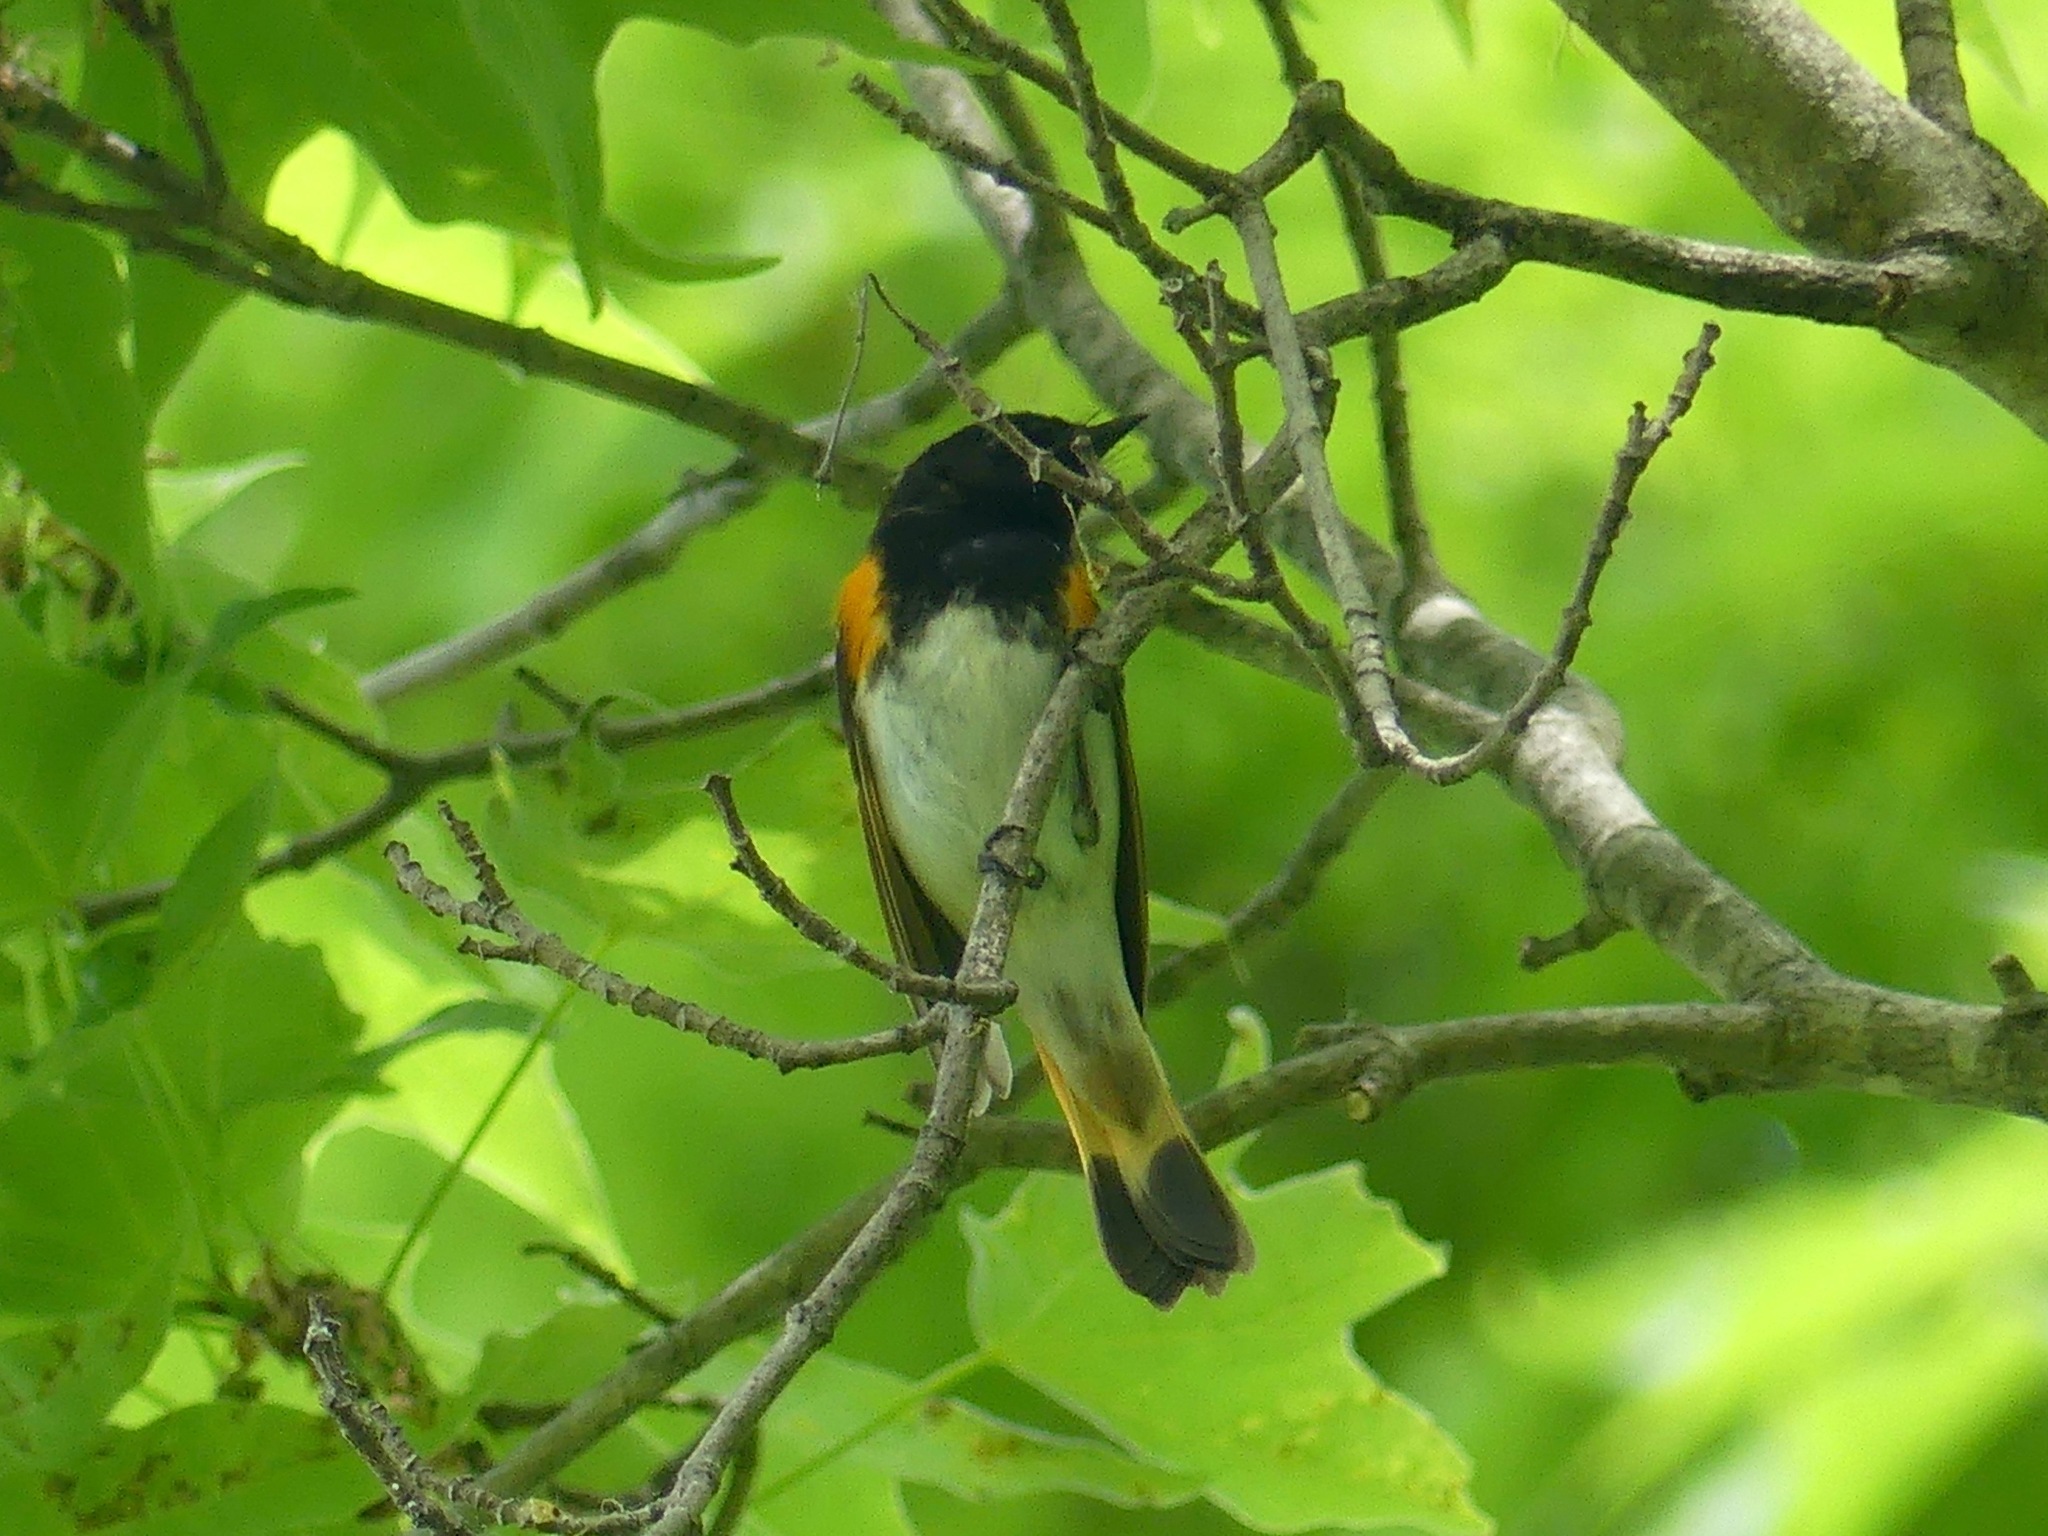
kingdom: Animalia
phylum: Chordata
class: Aves
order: Passeriformes
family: Parulidae
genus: Setophaga
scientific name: Setophaga ruticilla
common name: American redstart
